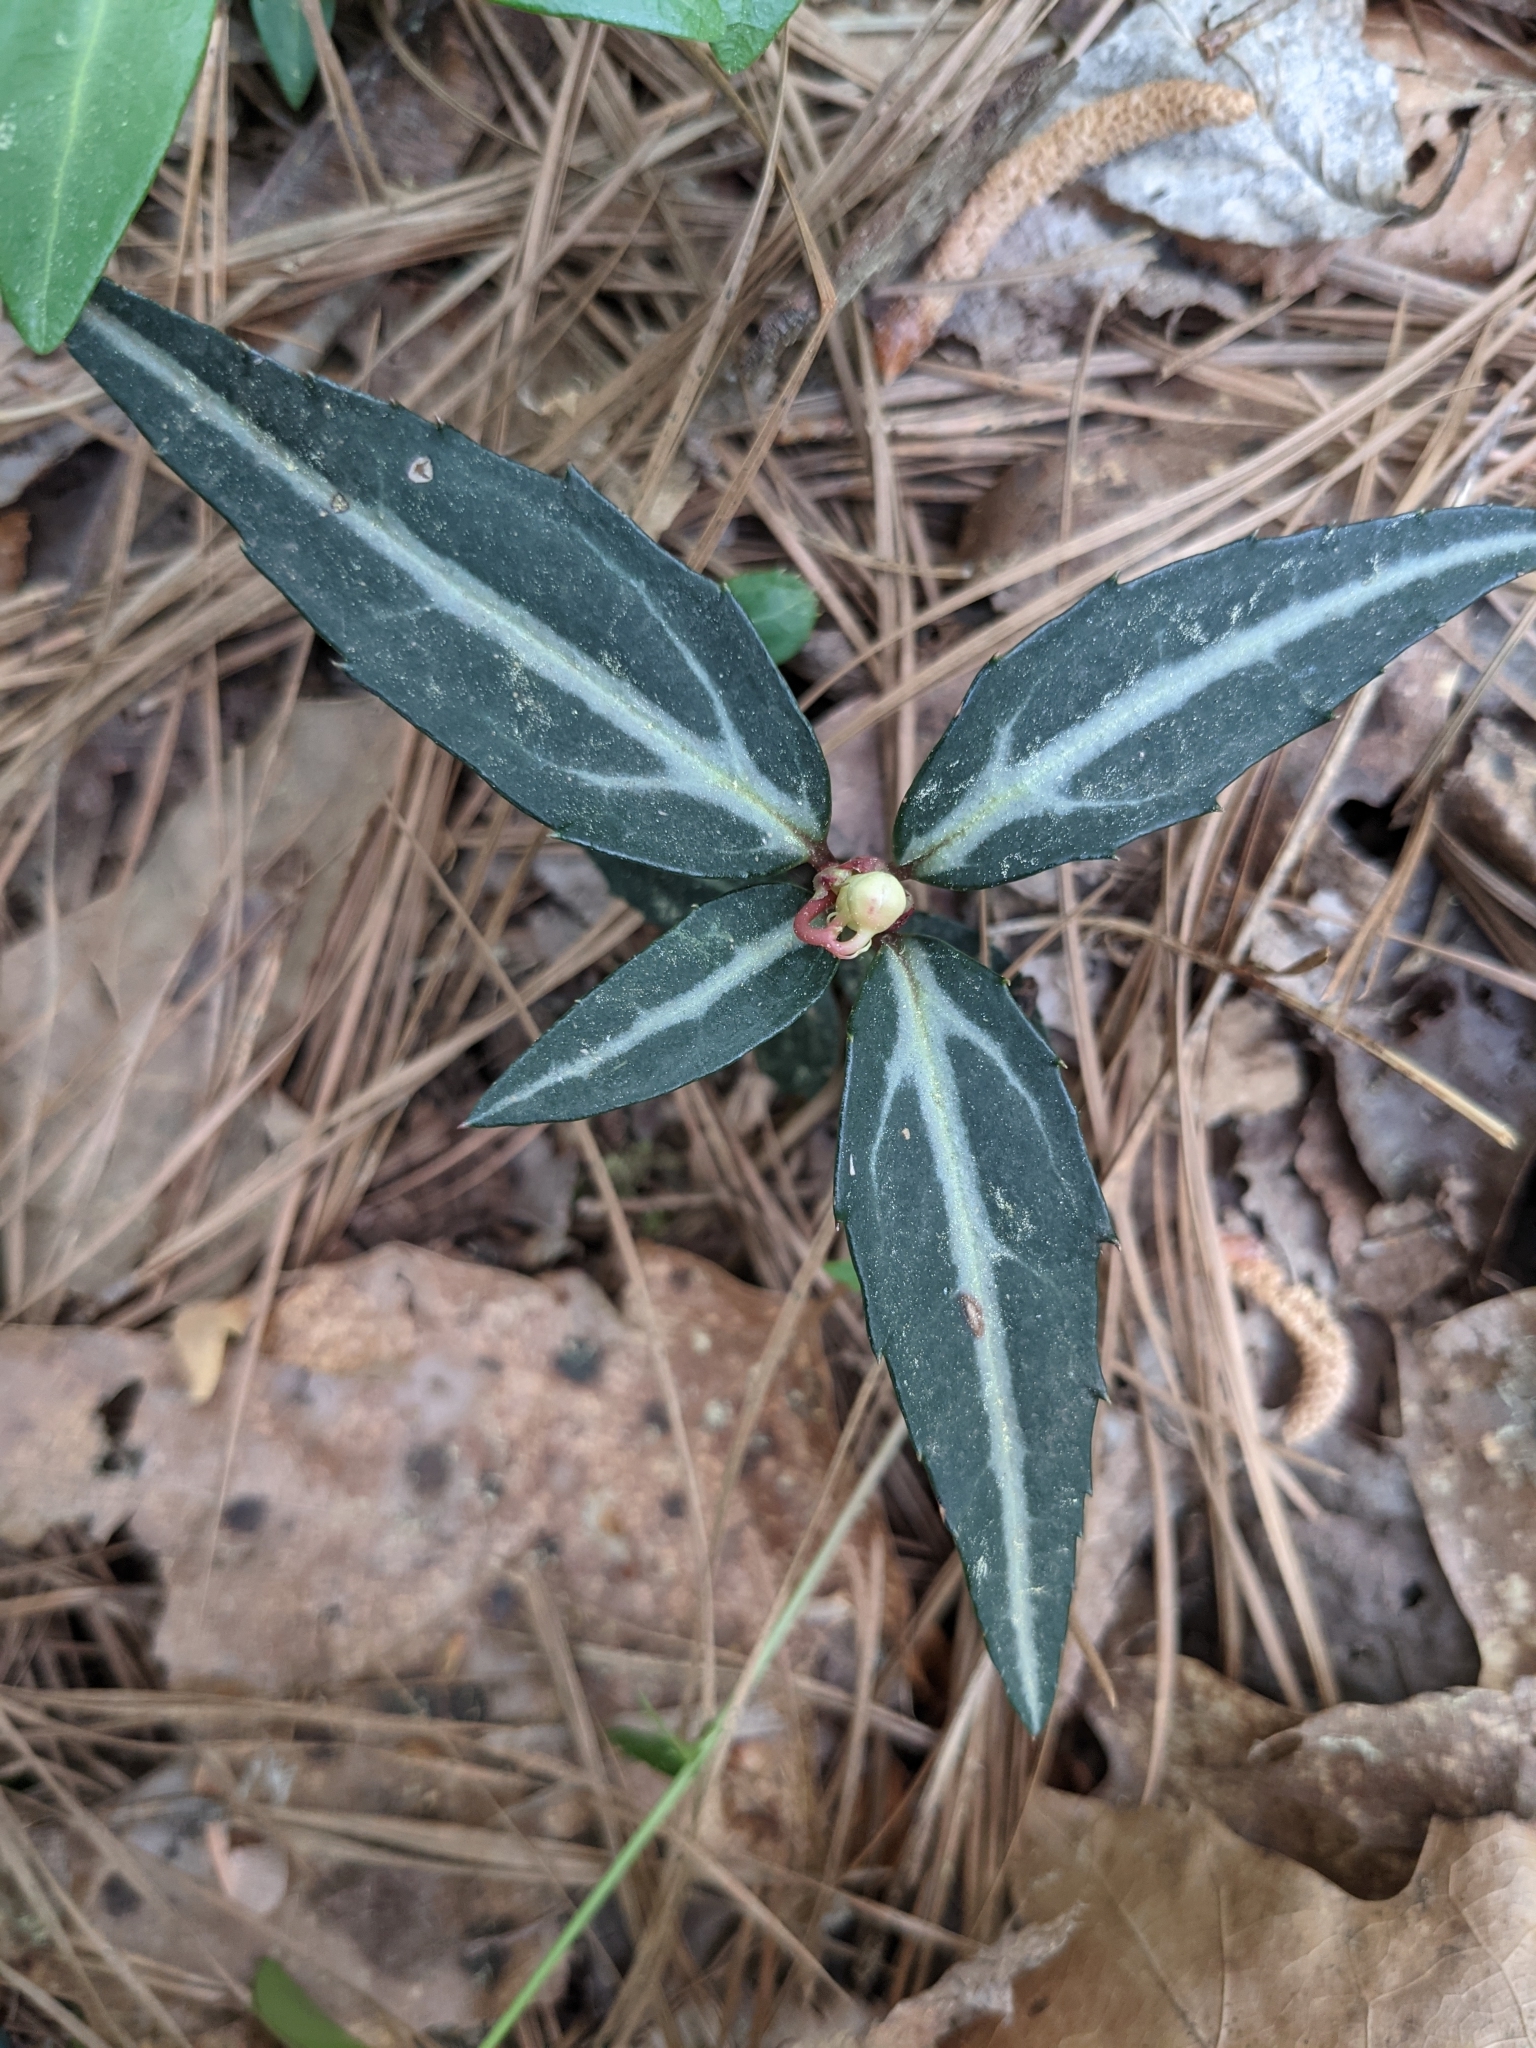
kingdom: Plantae
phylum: Tracheophyta
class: Magnoliopsida
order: Ericales
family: Ericaceae
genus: Chimaphila
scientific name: Chimaphila maculata
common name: Spotted pipsissewa
